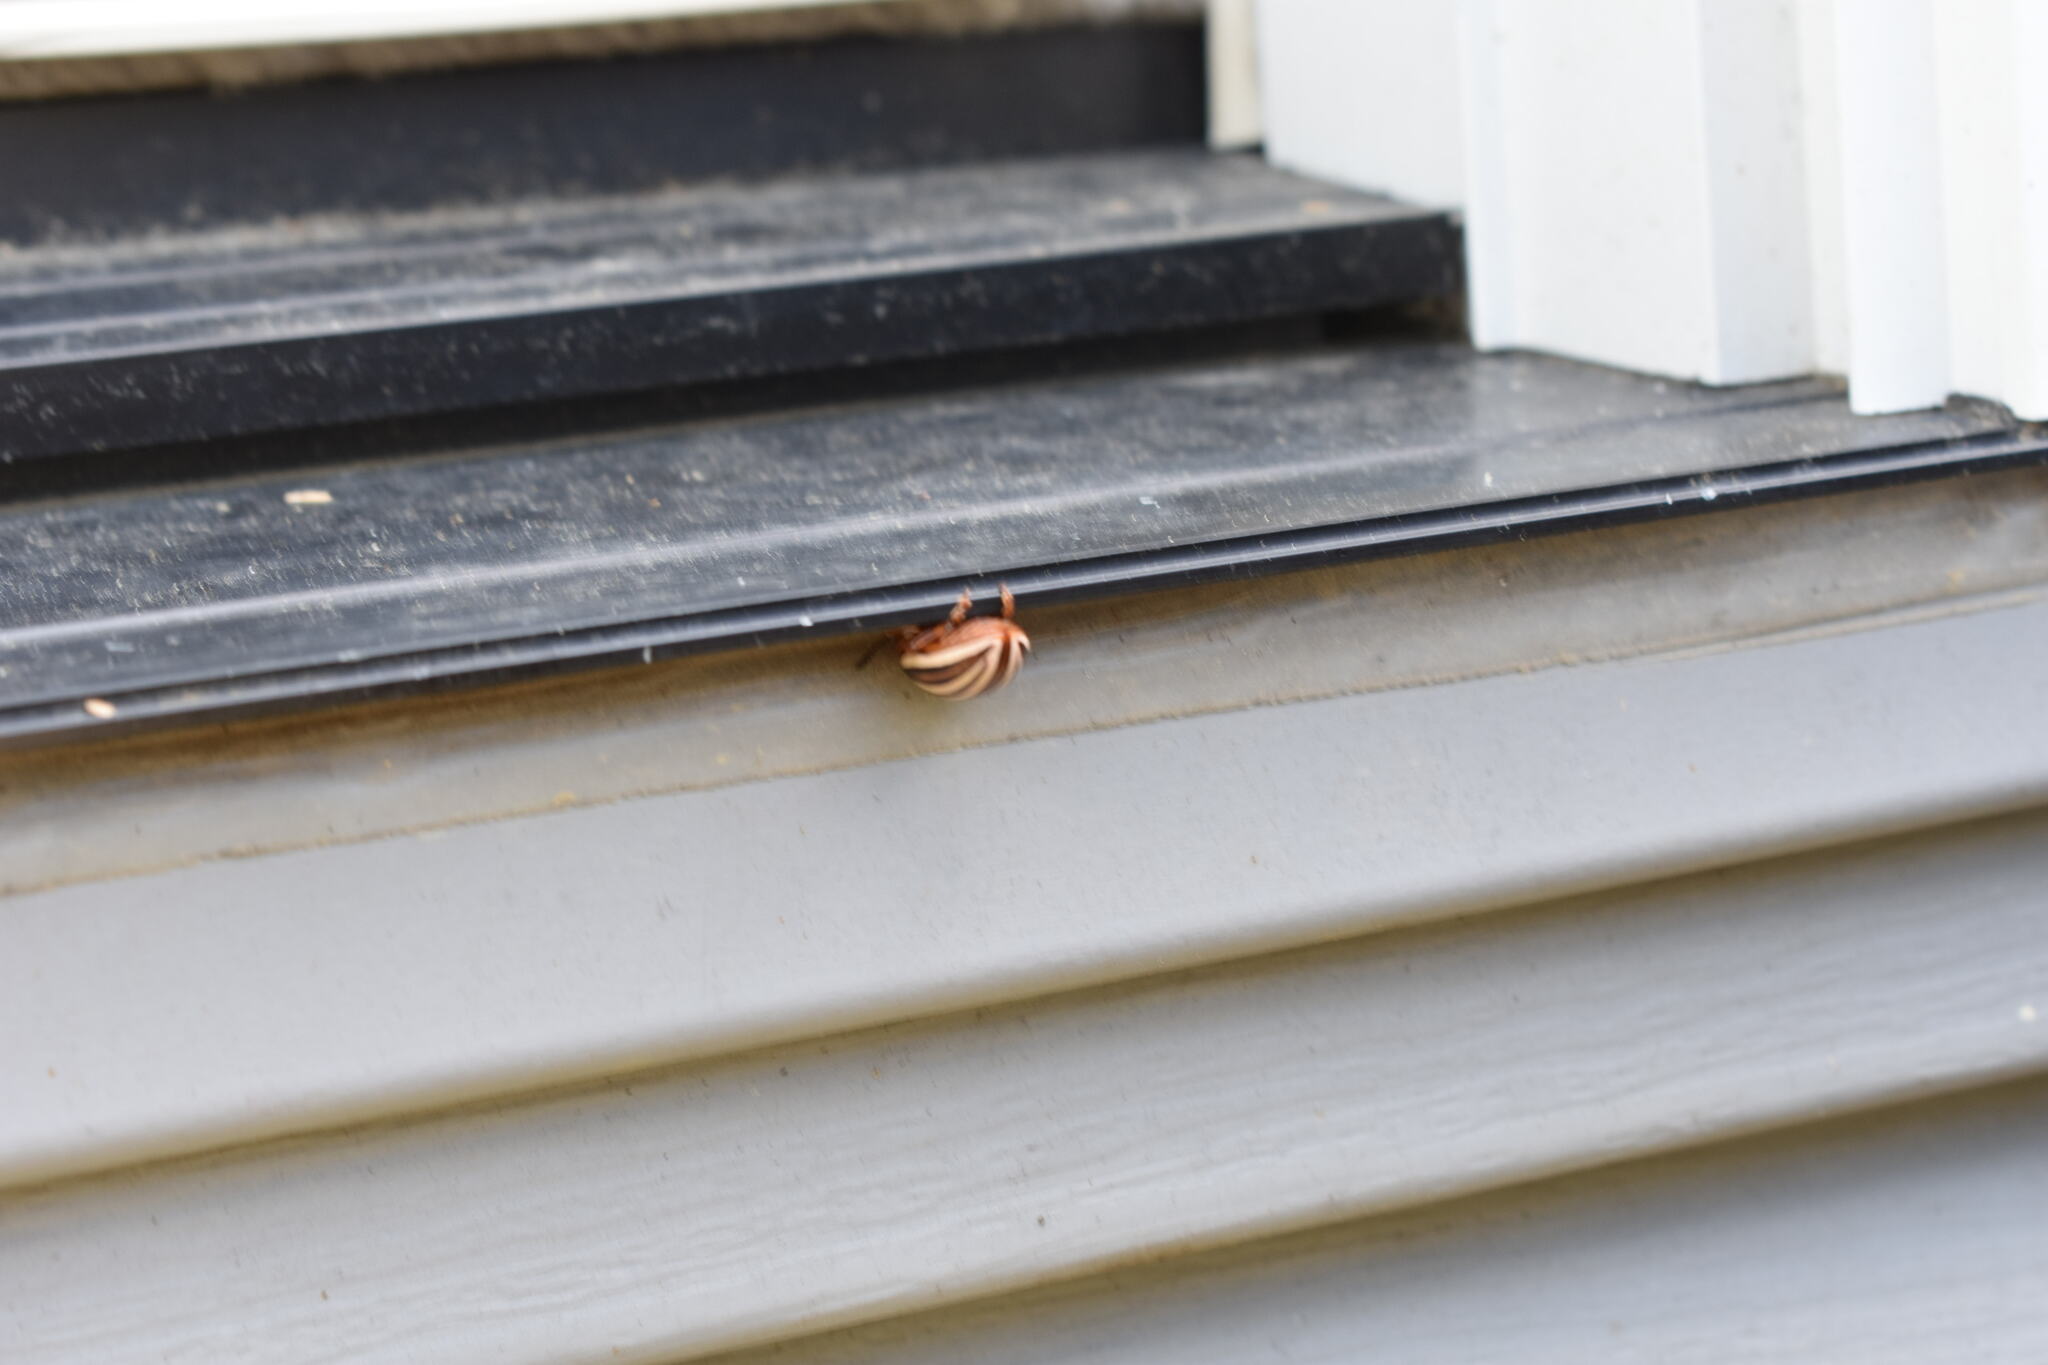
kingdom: Animalia
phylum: Arthropoda
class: Insecta
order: Coleoptera
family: Chrysomelidae
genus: Leptinotarsa
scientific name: Leptinotarsa juncta
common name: False potato beetle
